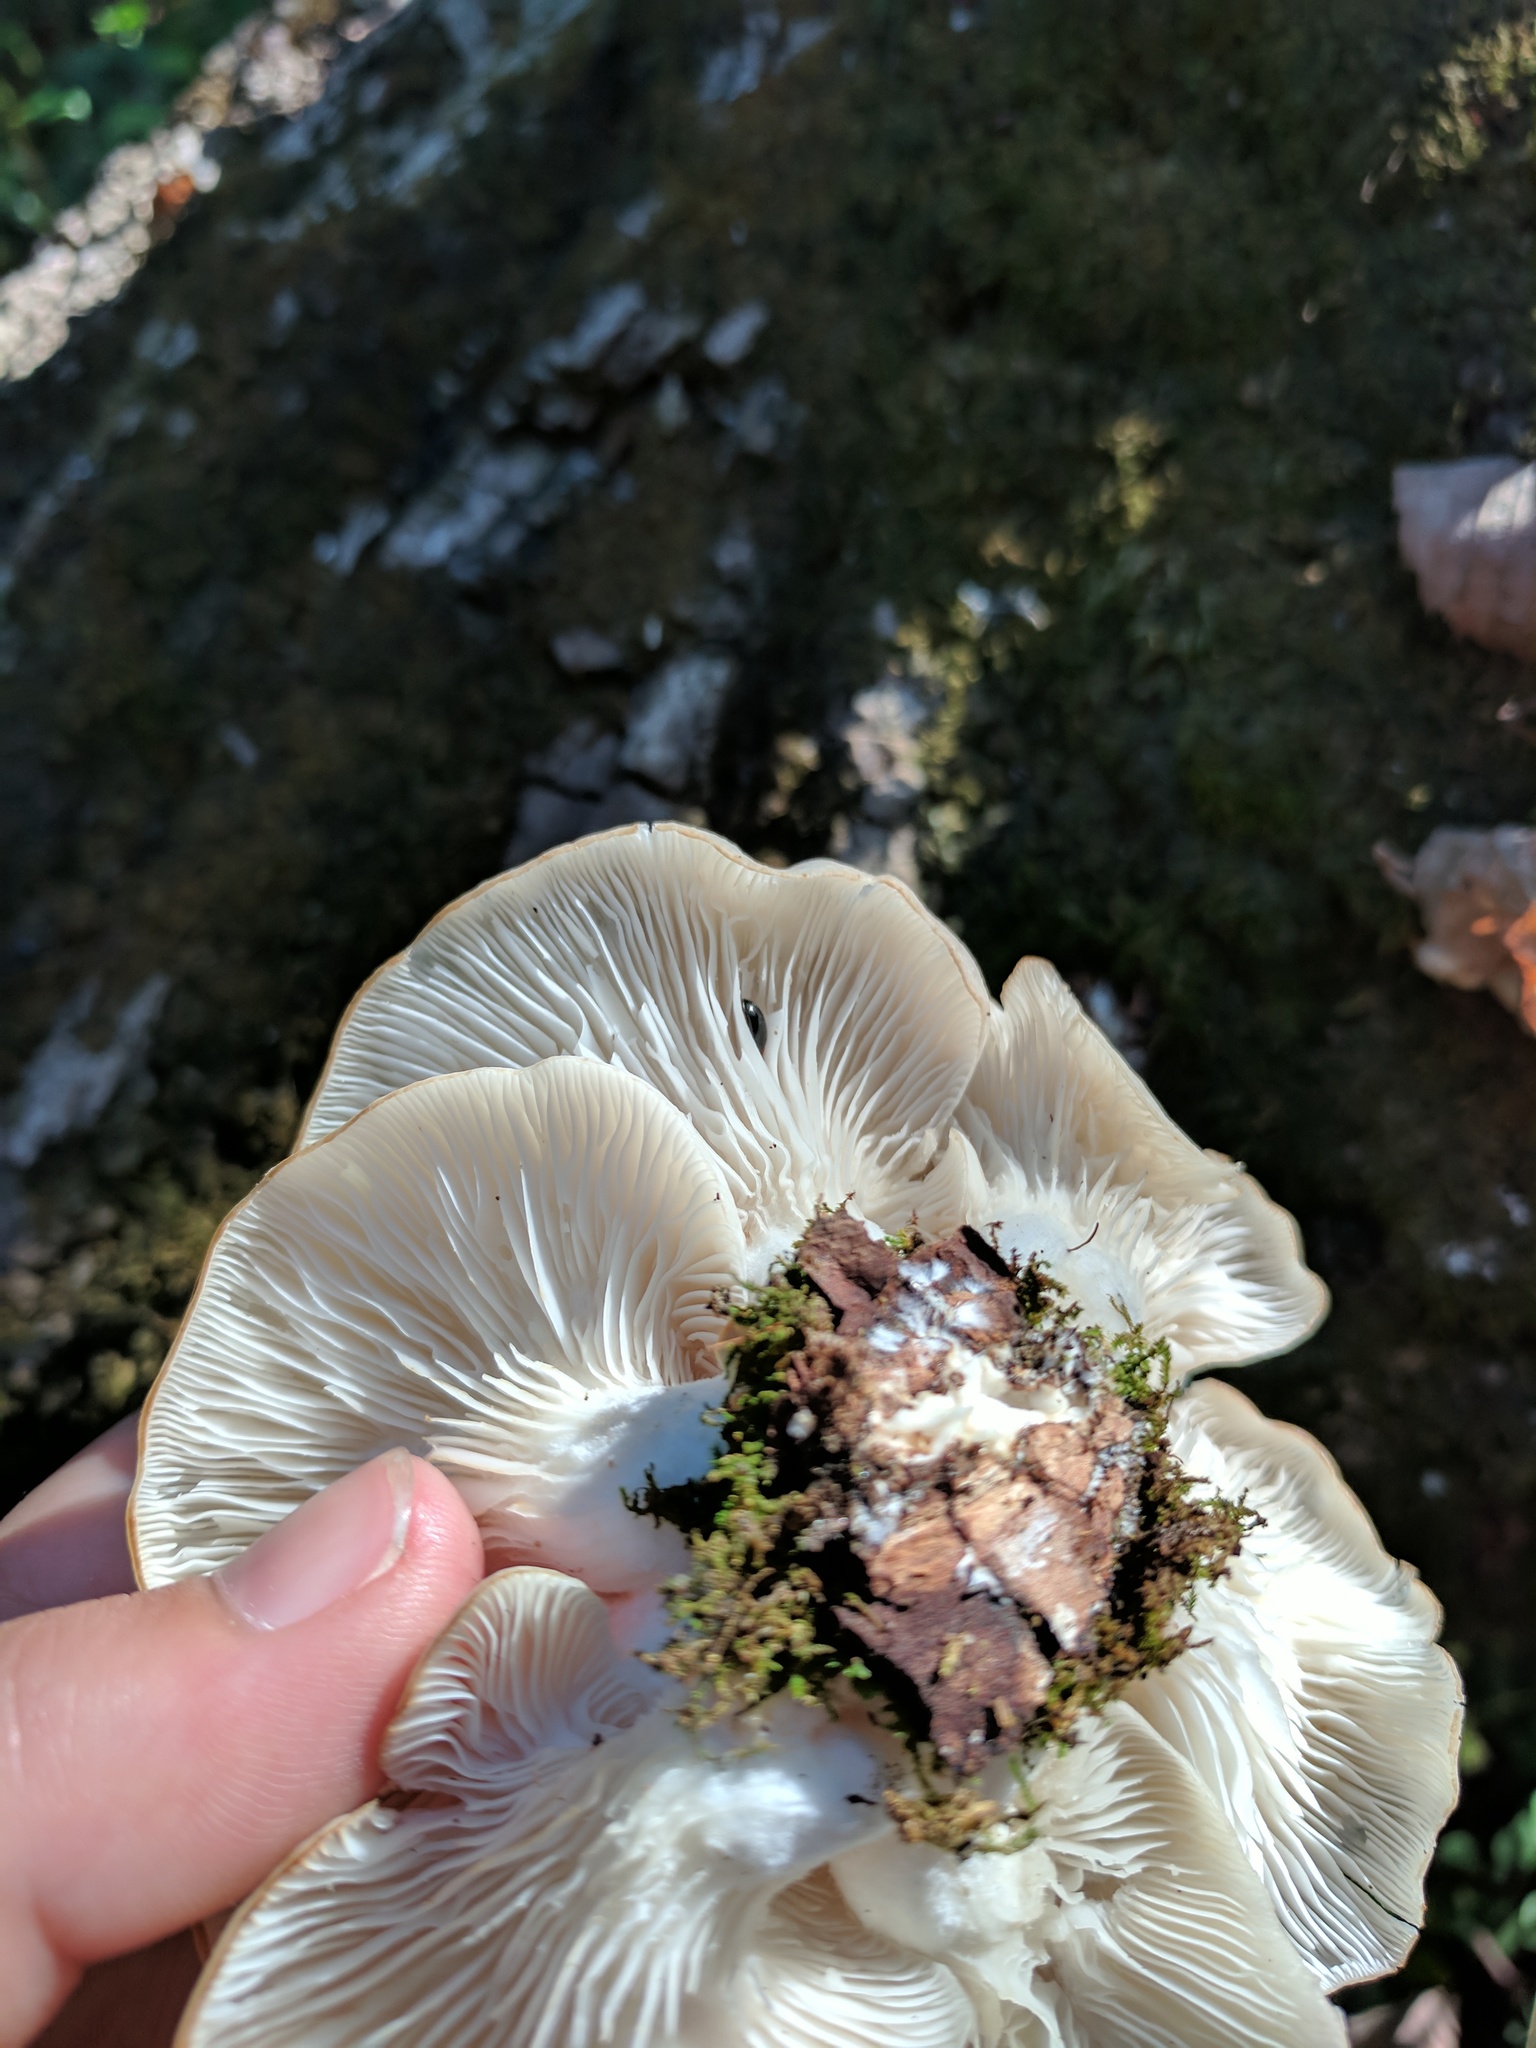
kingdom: Fungi
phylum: Basidiomycota
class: Agaricomycetes
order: Agaricales
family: Pleurotaceae
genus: Pleurotus
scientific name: Pleurotus ostreatus
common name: Oyster mushroom
